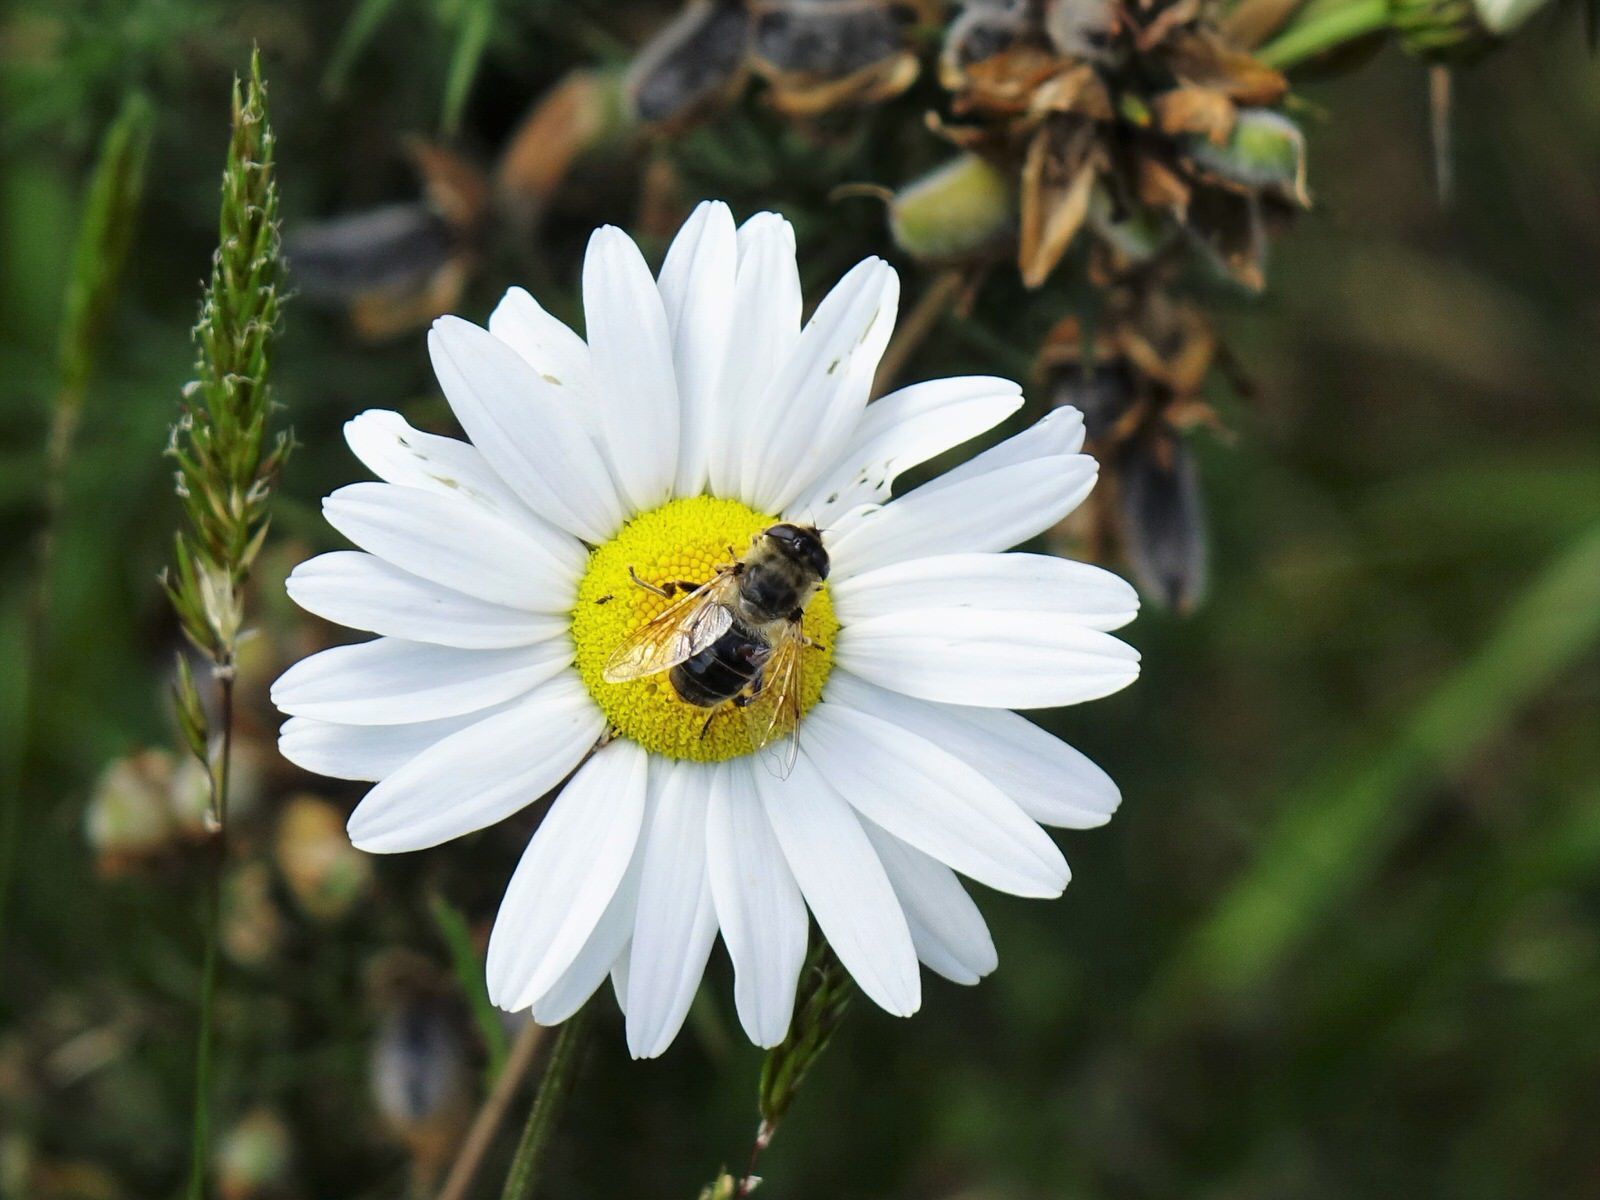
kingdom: Animalia
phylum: Arthropoda
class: Insecta
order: Diptera
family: Syrphidae
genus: Eristalis
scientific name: Eristalis tenax
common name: Drone fly
